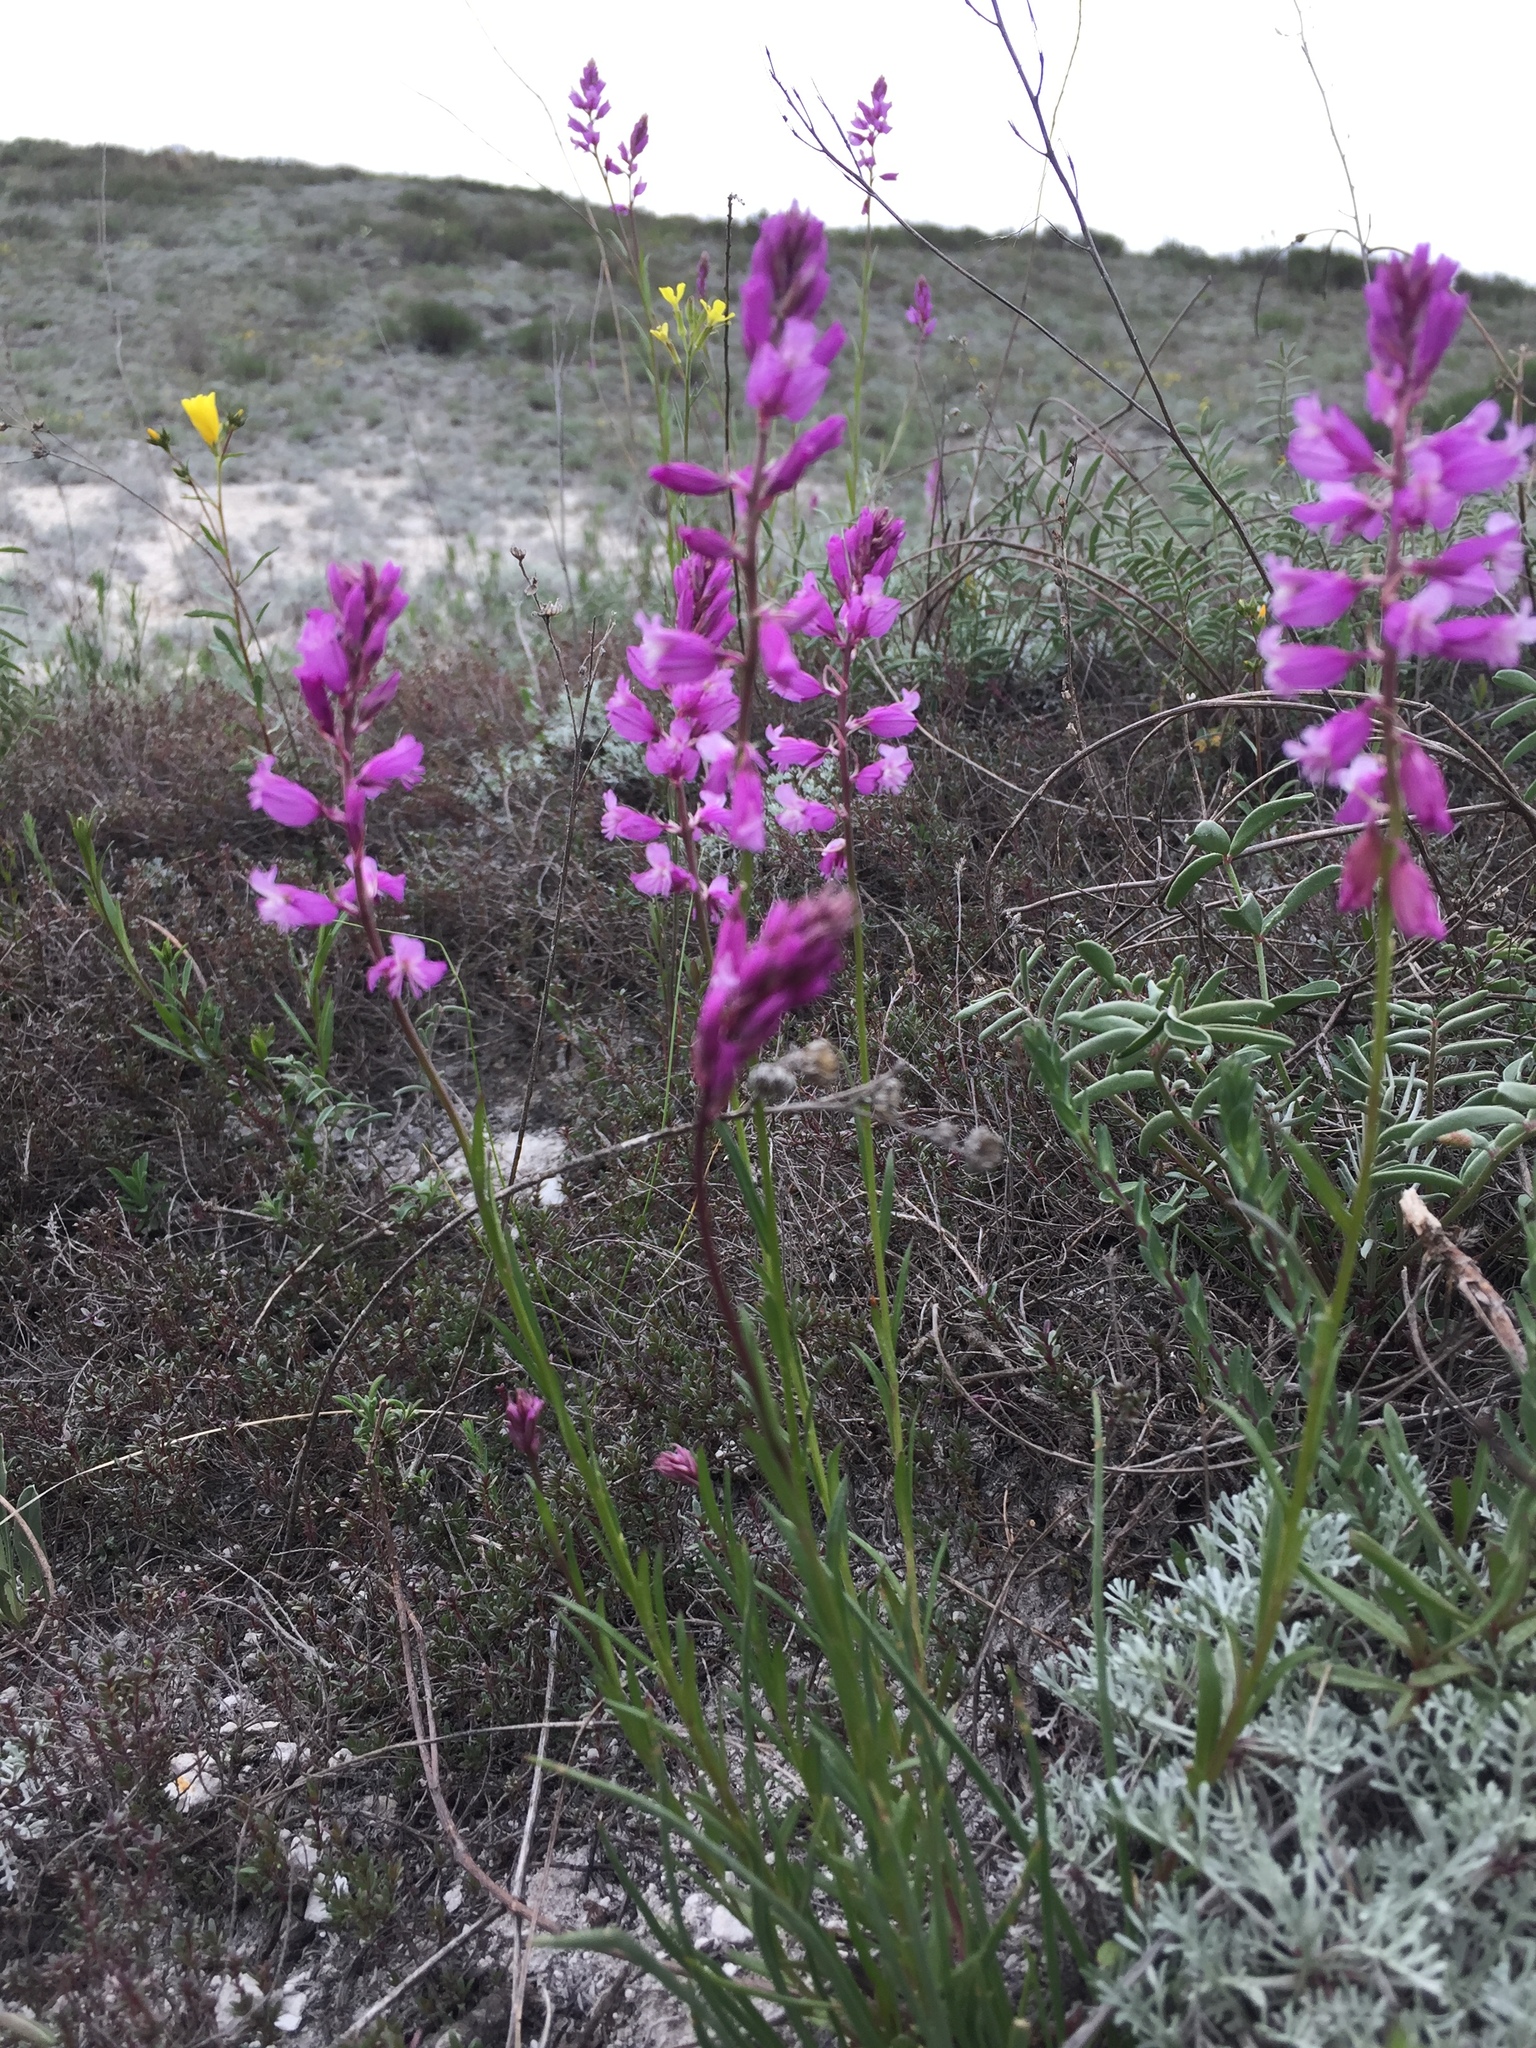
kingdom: Plantae
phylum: Tracheophyta
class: Magnoliopsida
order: Fabales
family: Polygalaceae
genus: Polygala
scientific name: Polygala nicaeensis
